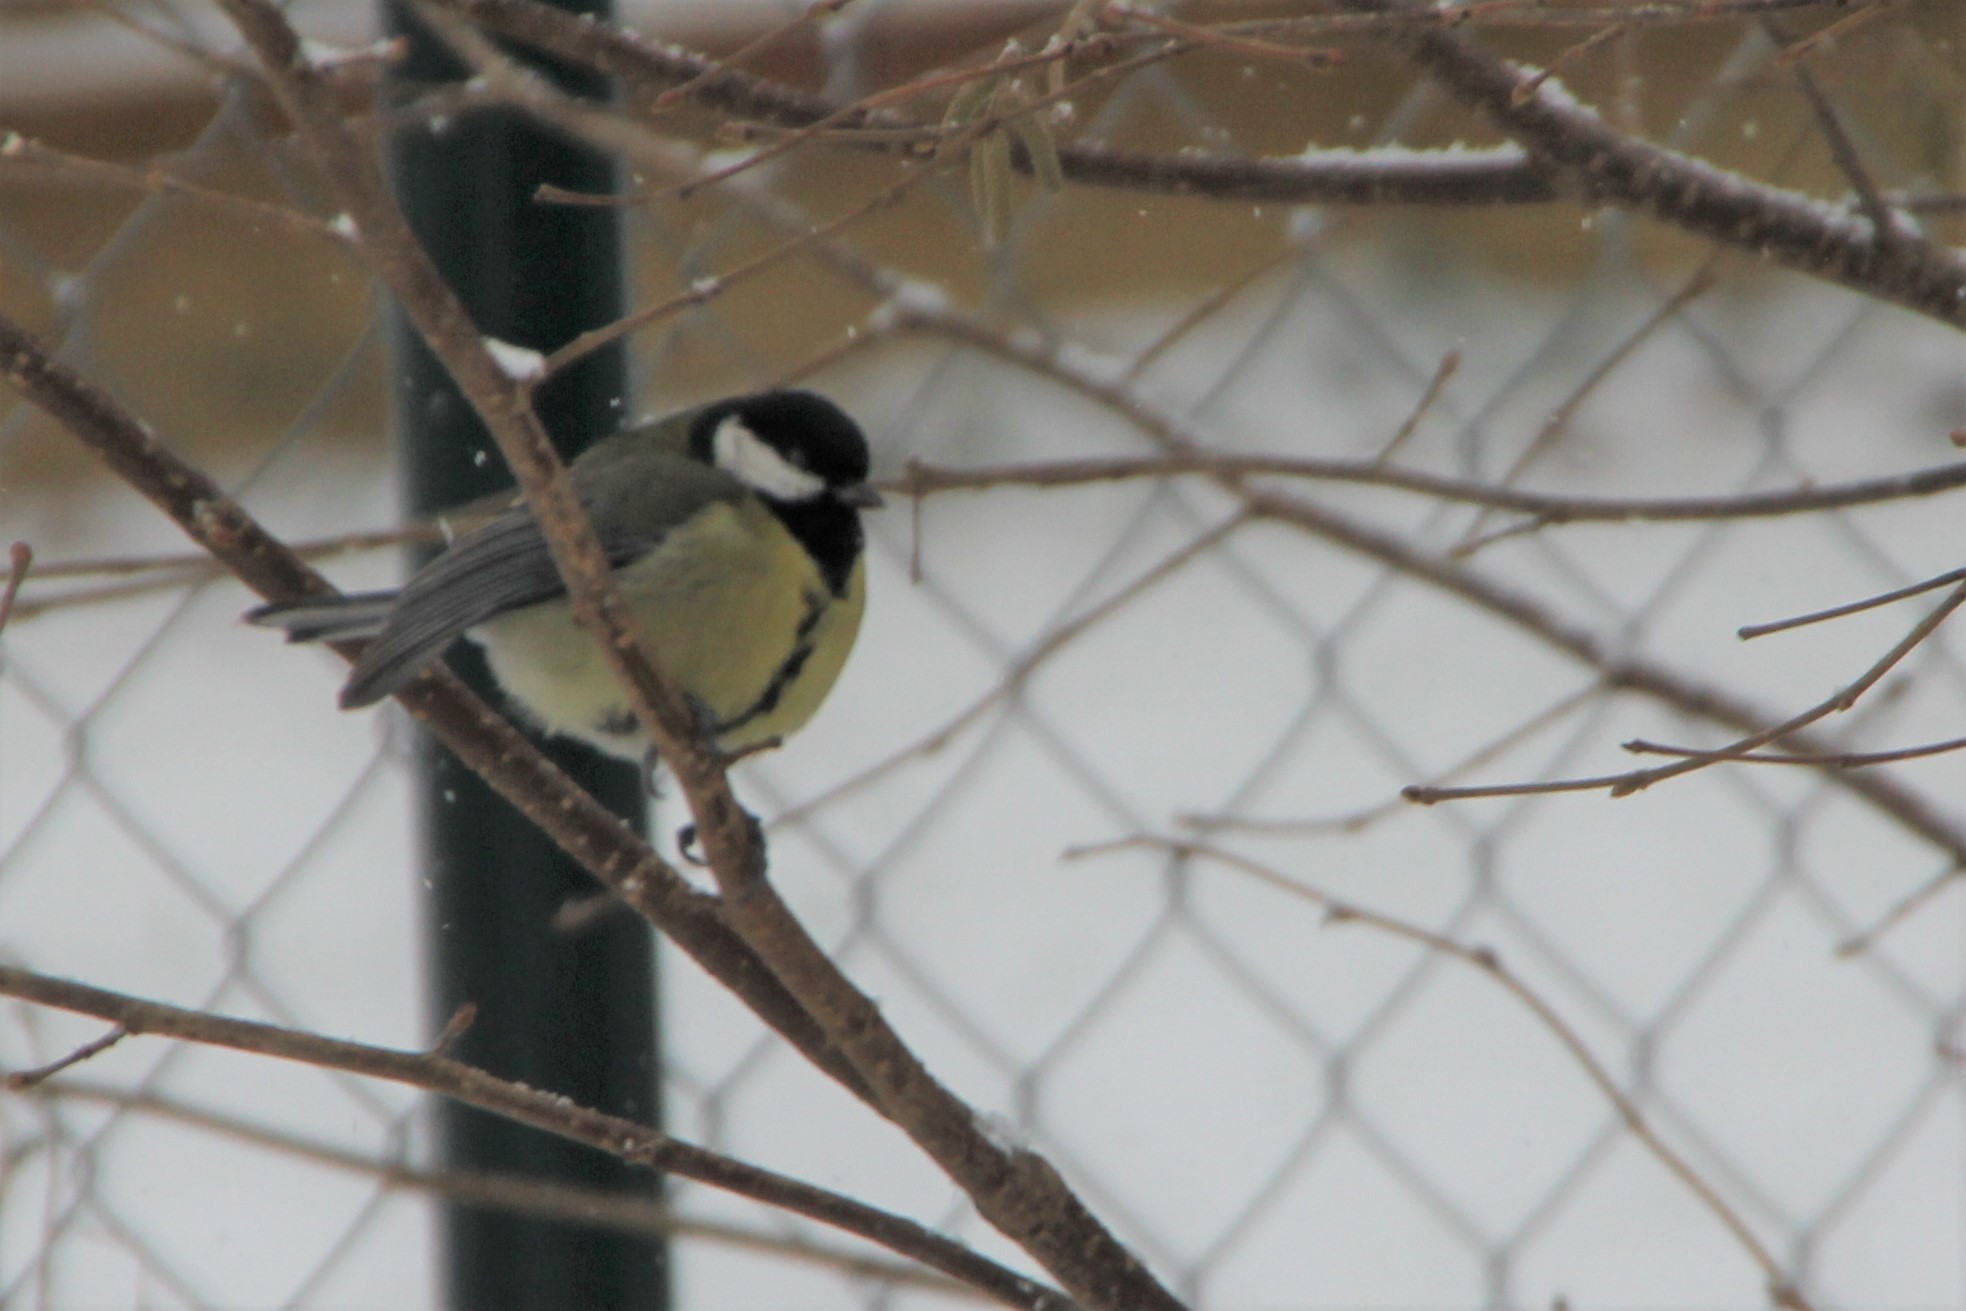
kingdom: Animalia
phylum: Chordata
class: Aves
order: Passeriformes
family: Paridae
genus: Parus
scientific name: Parus major
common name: Great tit
